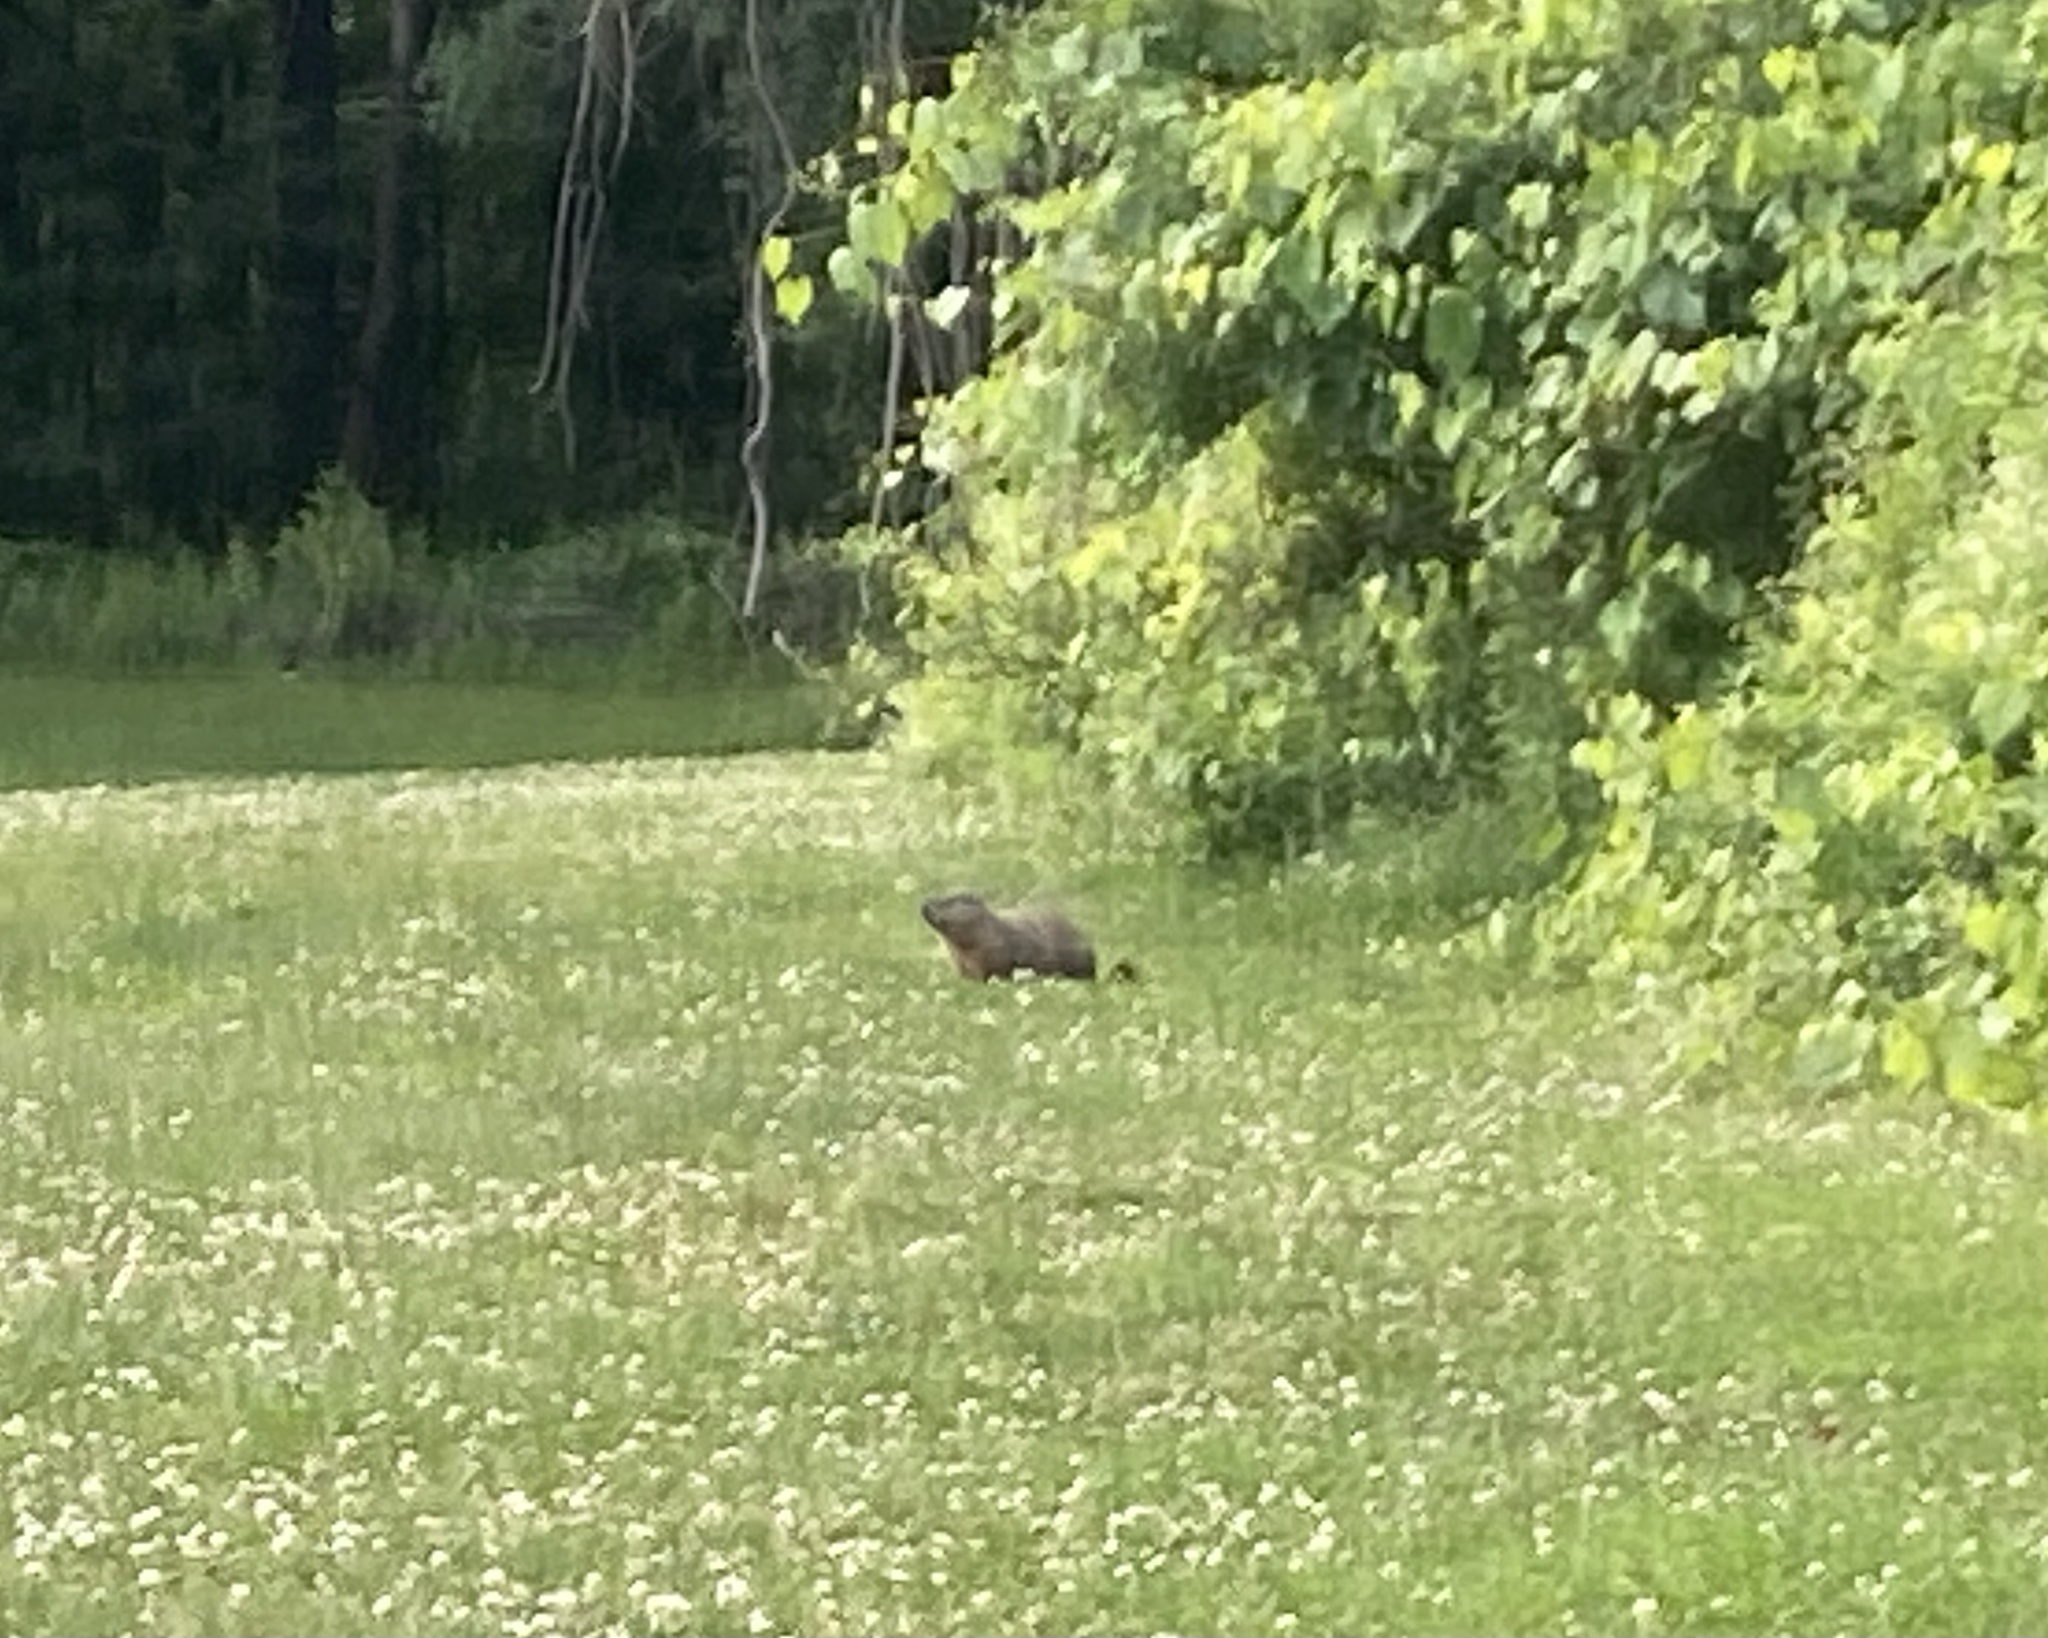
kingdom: Animalia
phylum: Chordata
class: Mammalia
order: Rodentia
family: Sciuridae
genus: Marmota
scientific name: Marmota monax
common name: Groundhog
